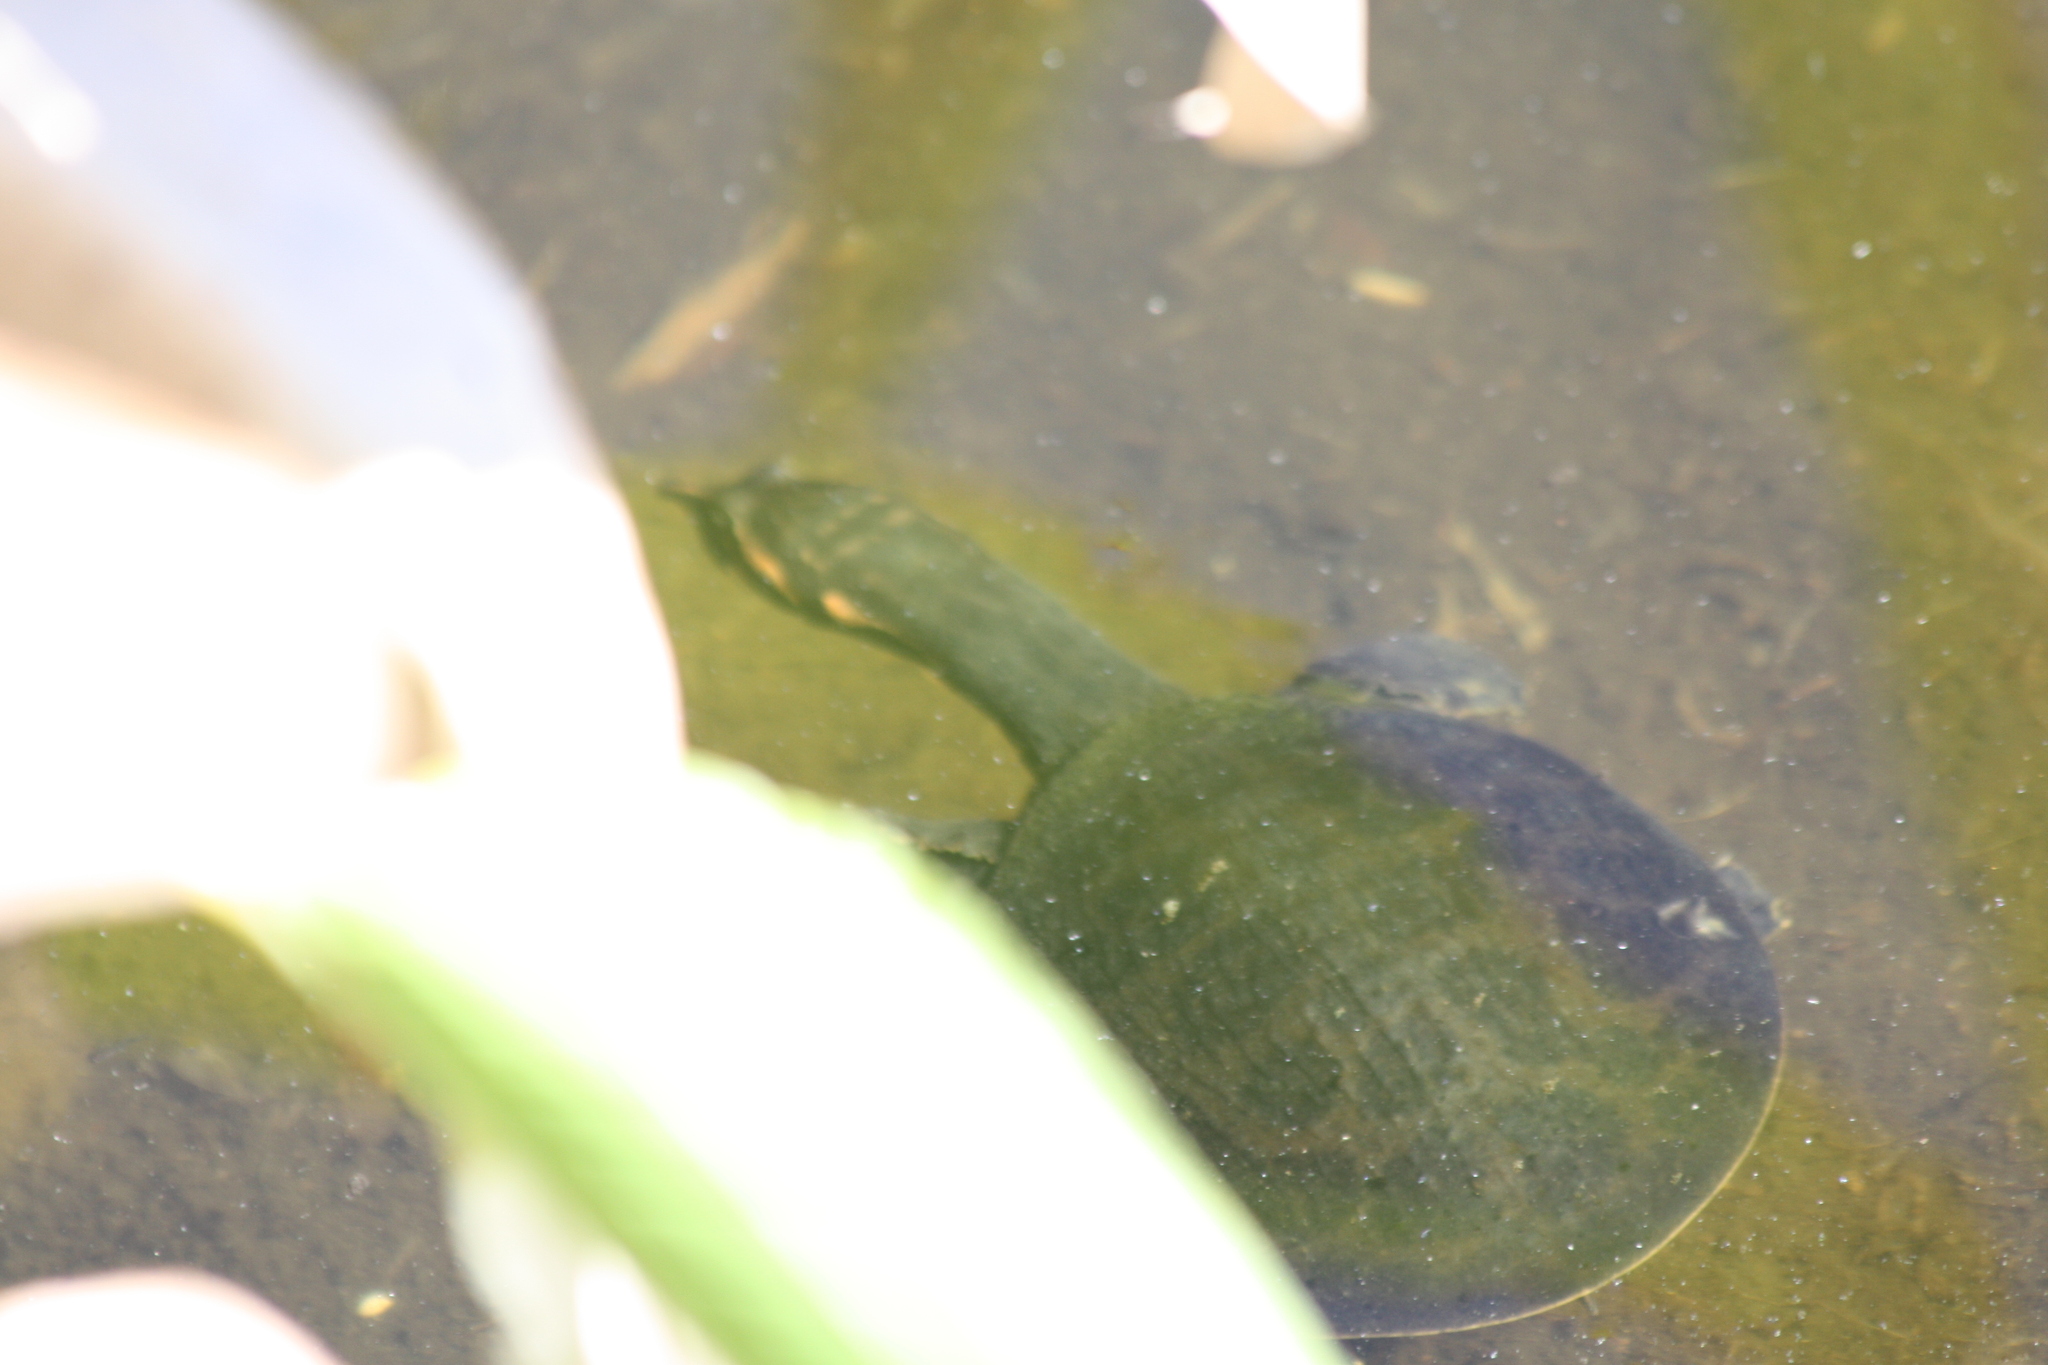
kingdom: Animalia
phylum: Chordata
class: Testudines
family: Trionychidae
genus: Apalone
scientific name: Apalone ferox
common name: Florida softshell turtle
